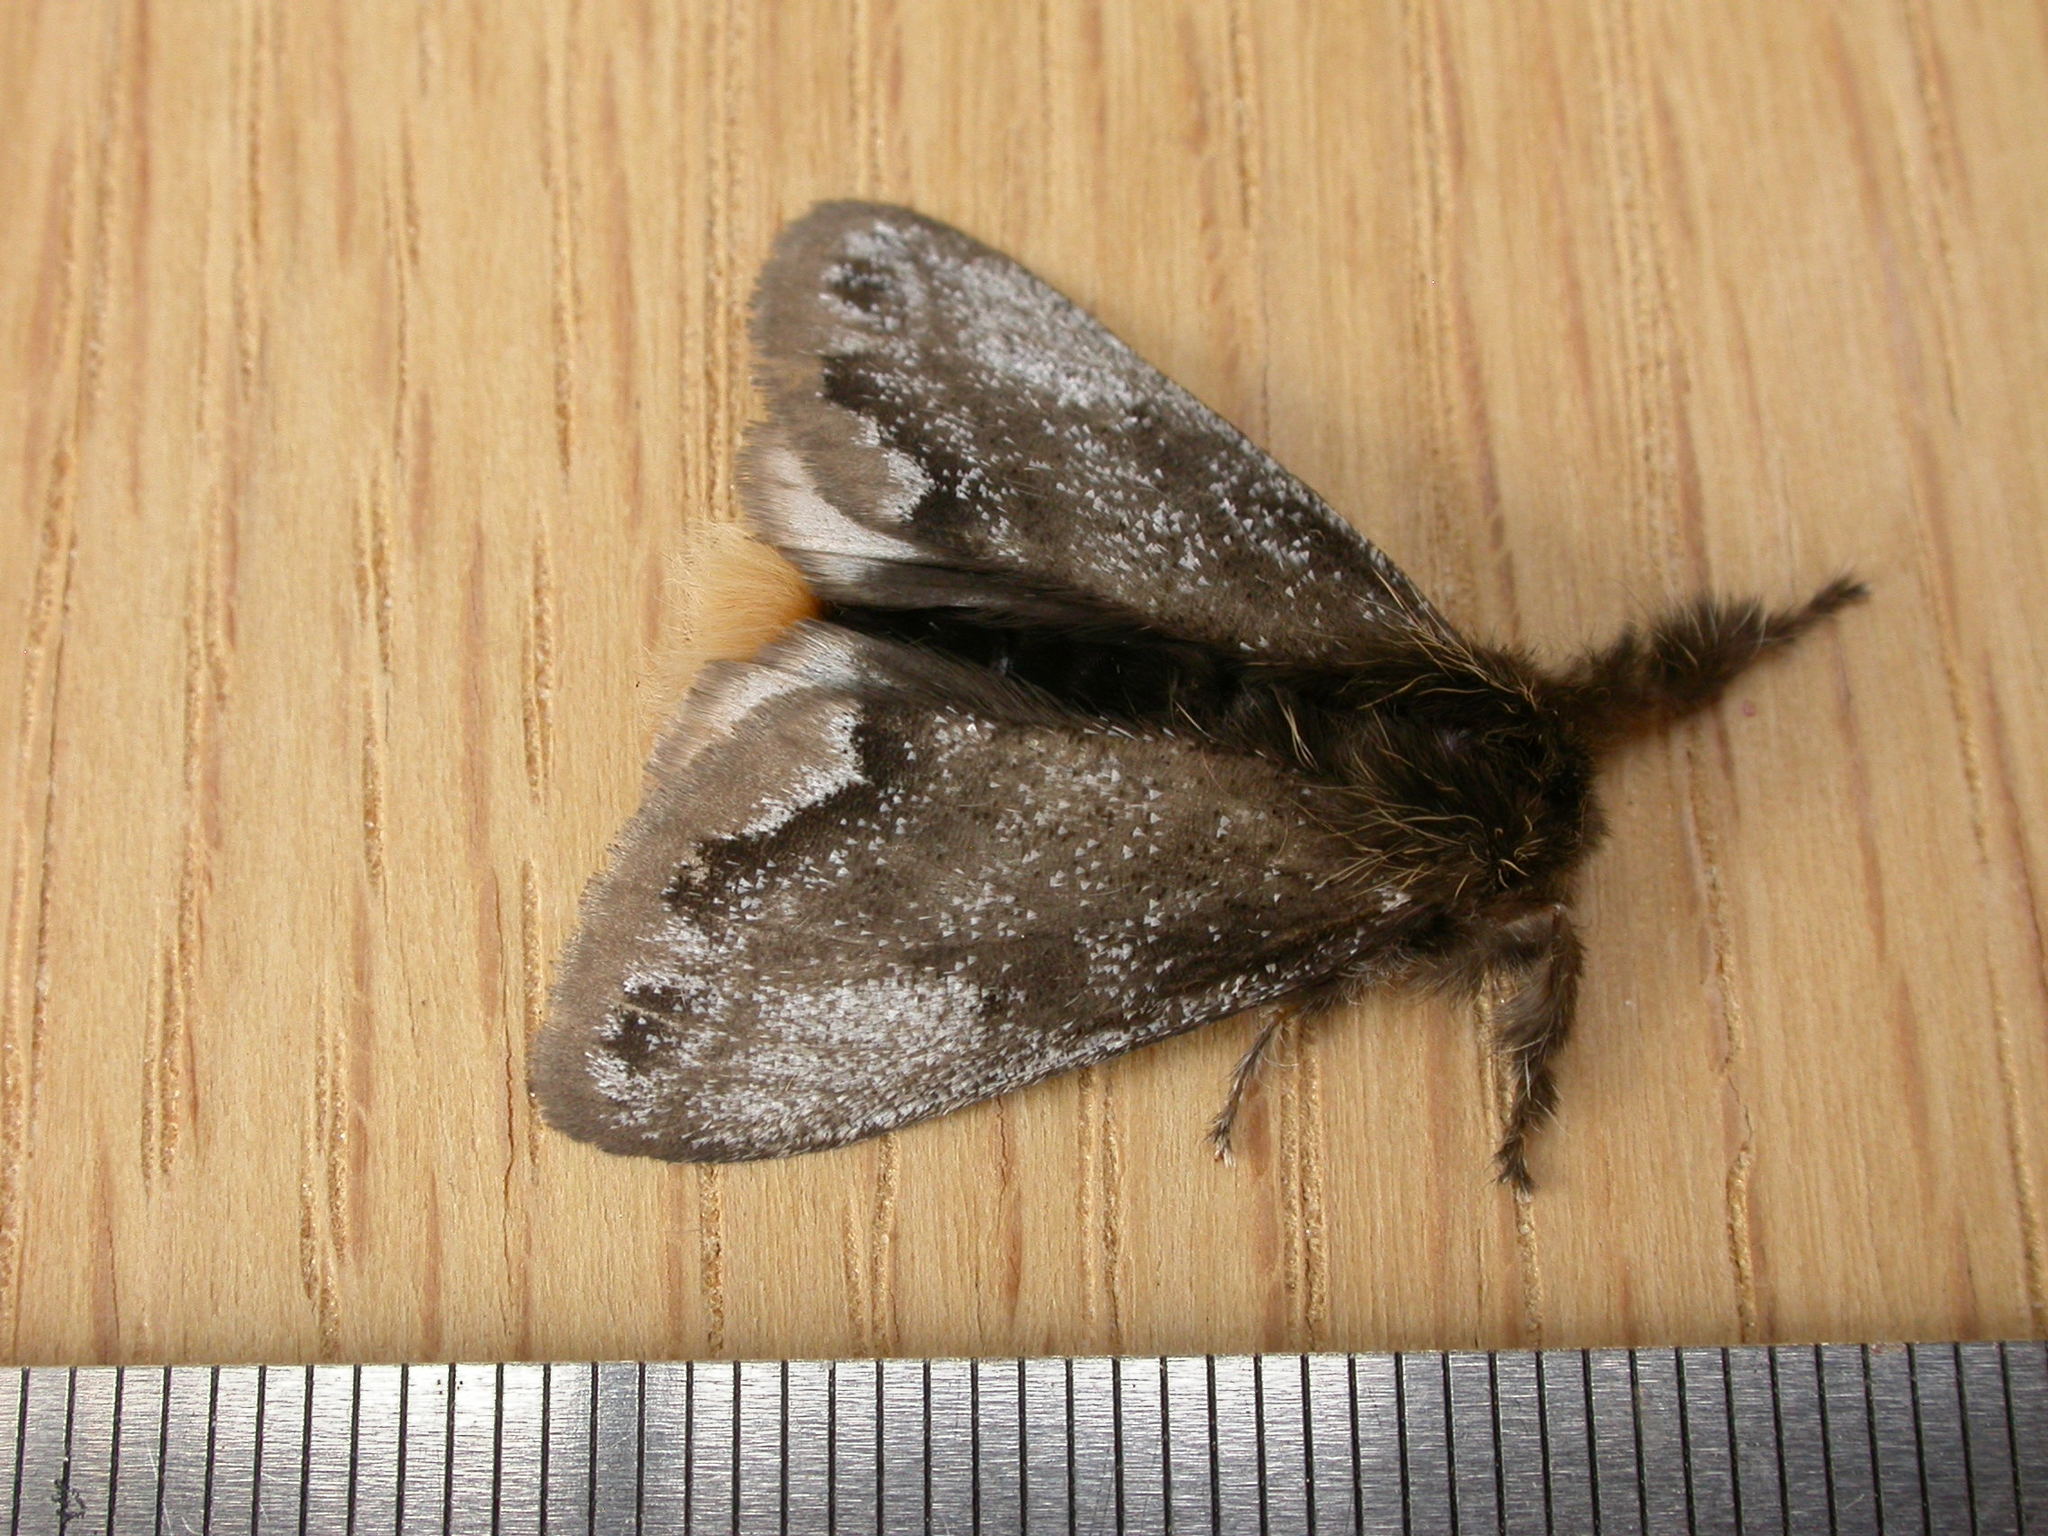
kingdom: Animalia
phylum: Arthropoda
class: Insecta
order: Lepidoptera
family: Erebidae
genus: Euproctis
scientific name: Euproctis
